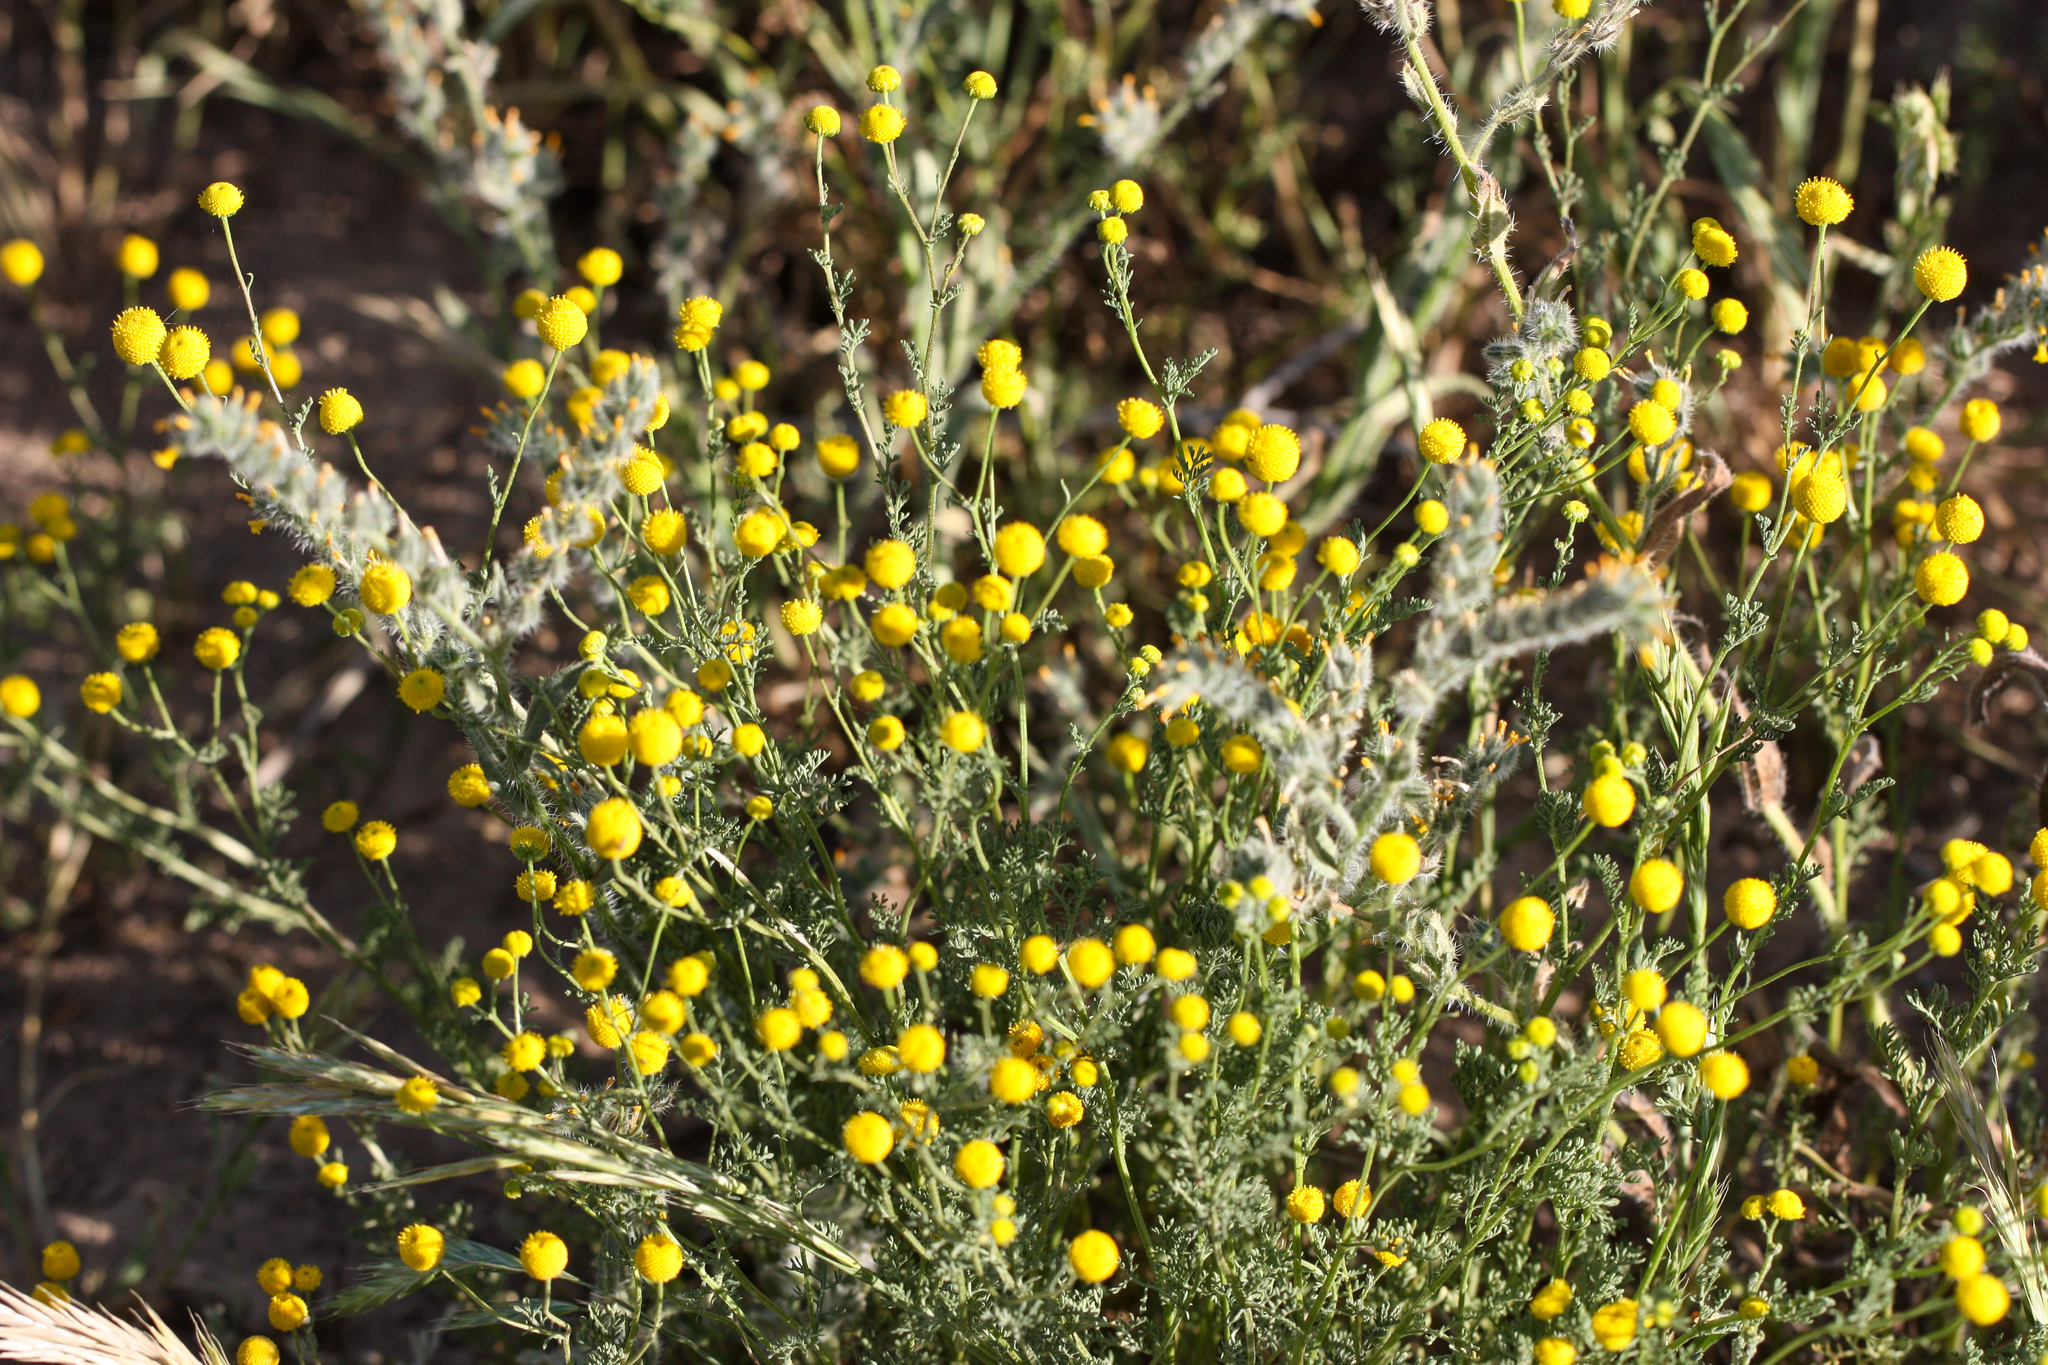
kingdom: Plantae
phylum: Tracheophyta
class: Magnoliopsida
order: Asterales
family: Asteraceae
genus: Oncosiphon
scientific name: Oncosiphon pilulifer
